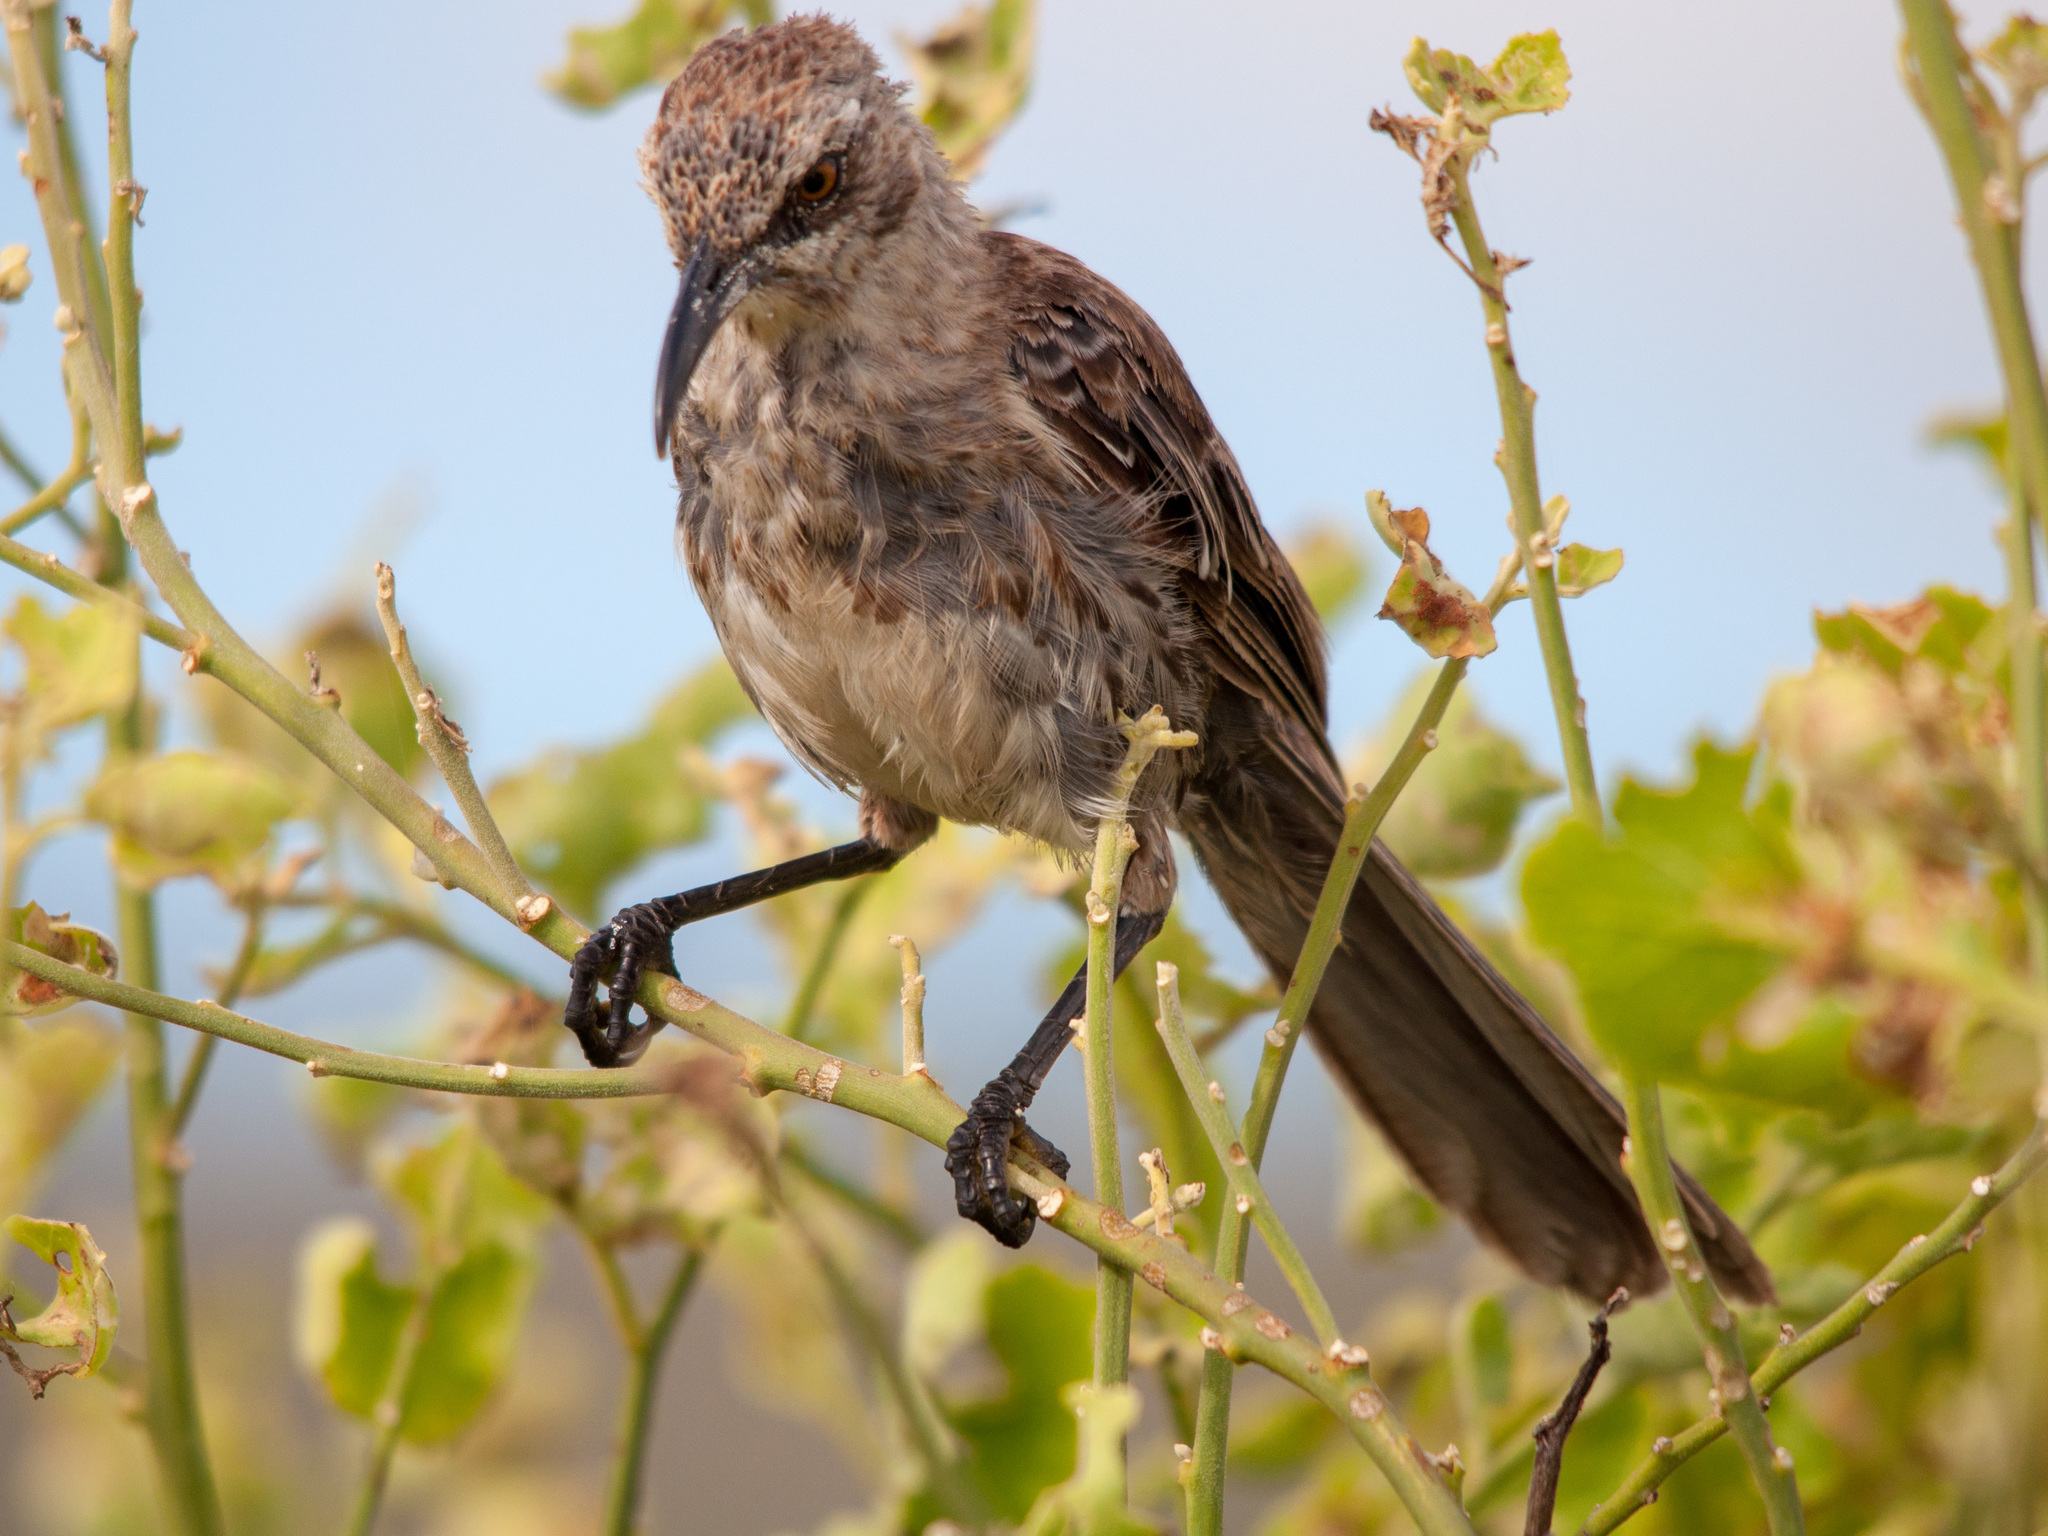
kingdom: Animalia
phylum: Chordata
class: Aves
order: Passeriformes
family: Mimidae
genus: Mimus
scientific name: Mimus macdonaldi
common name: Espanola mockingbird
